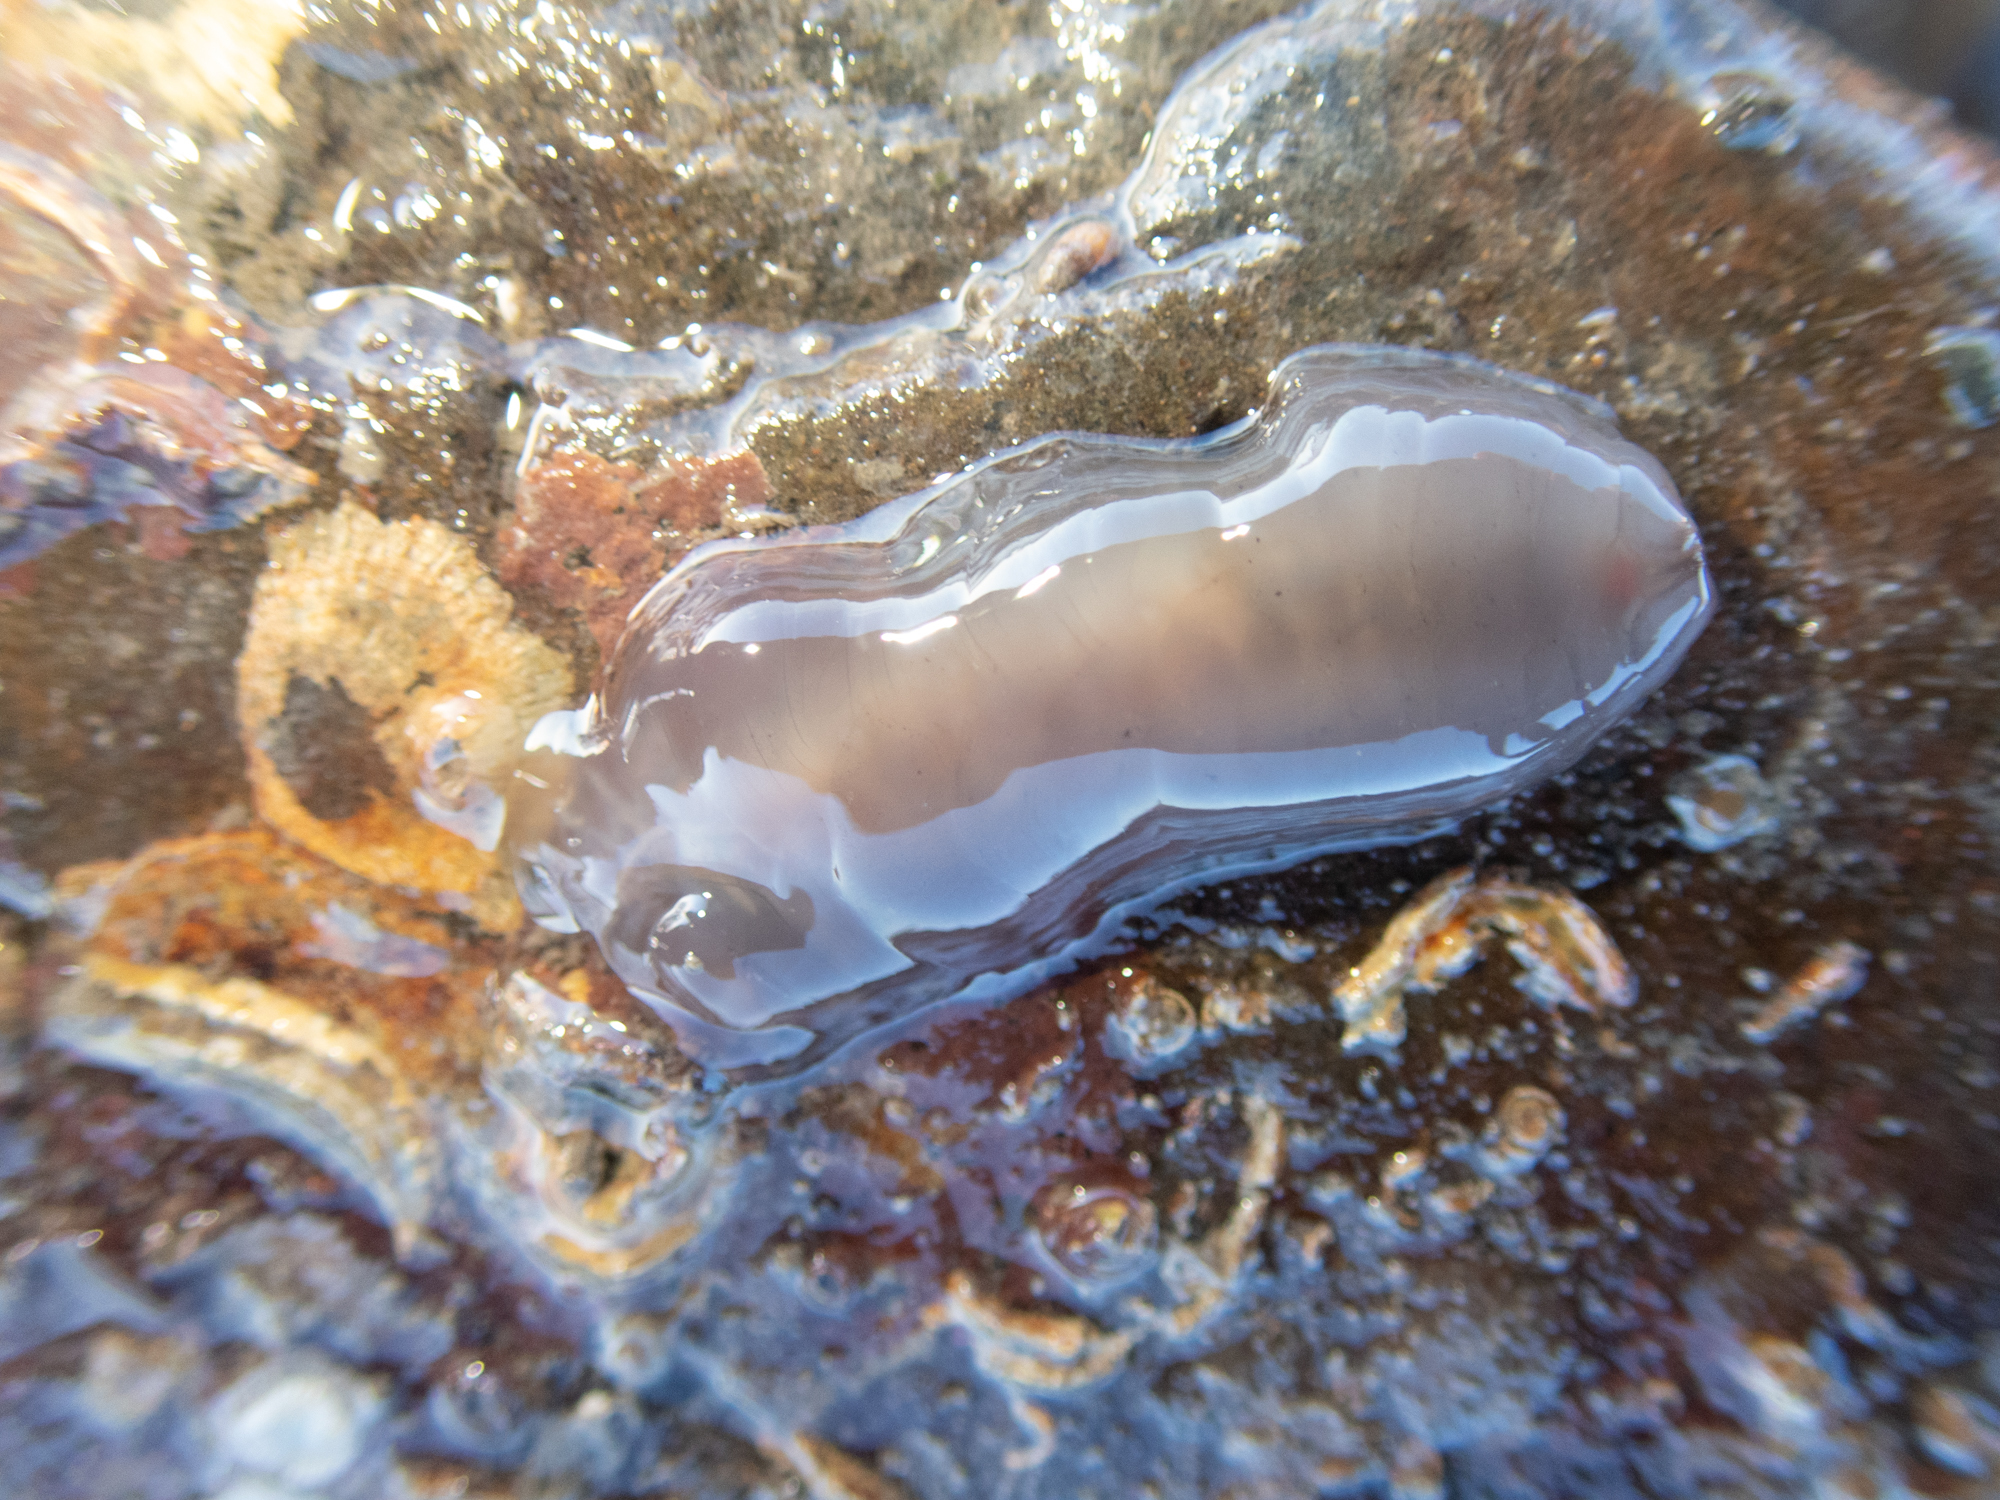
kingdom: Animalia
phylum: Annelida
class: Polychaeta
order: Phyllodocida
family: Polynoidae
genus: Alentia
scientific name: Alentia gelatinosa
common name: Gelatinous scale worm
